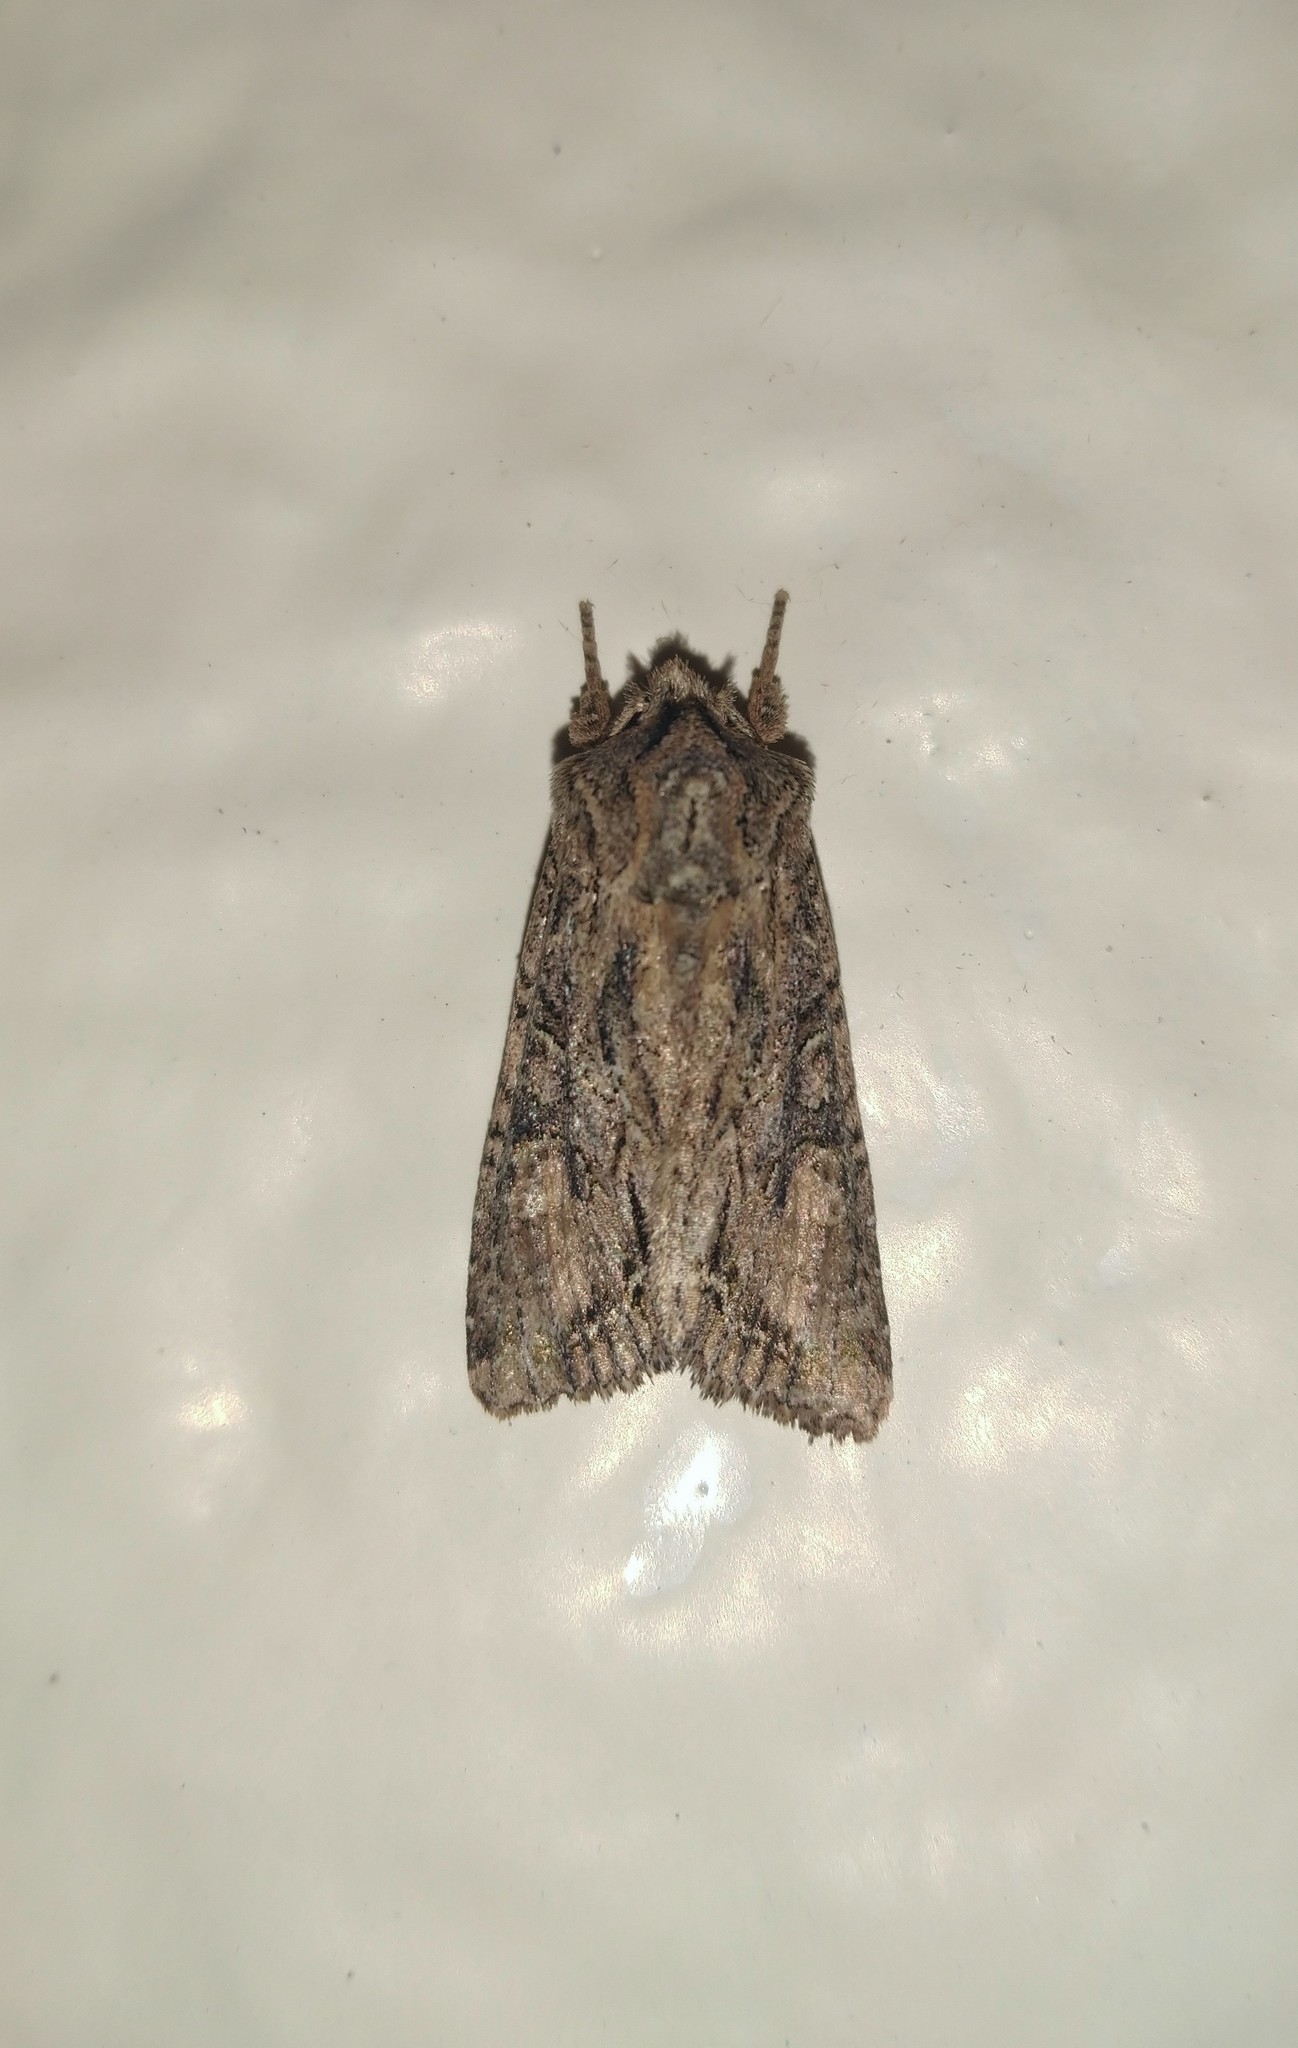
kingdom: Animalia
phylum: Arthropoda
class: Insecta
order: Lepidoptera
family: Noctuidae
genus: Ichneutica
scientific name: Ichneutica mutans
